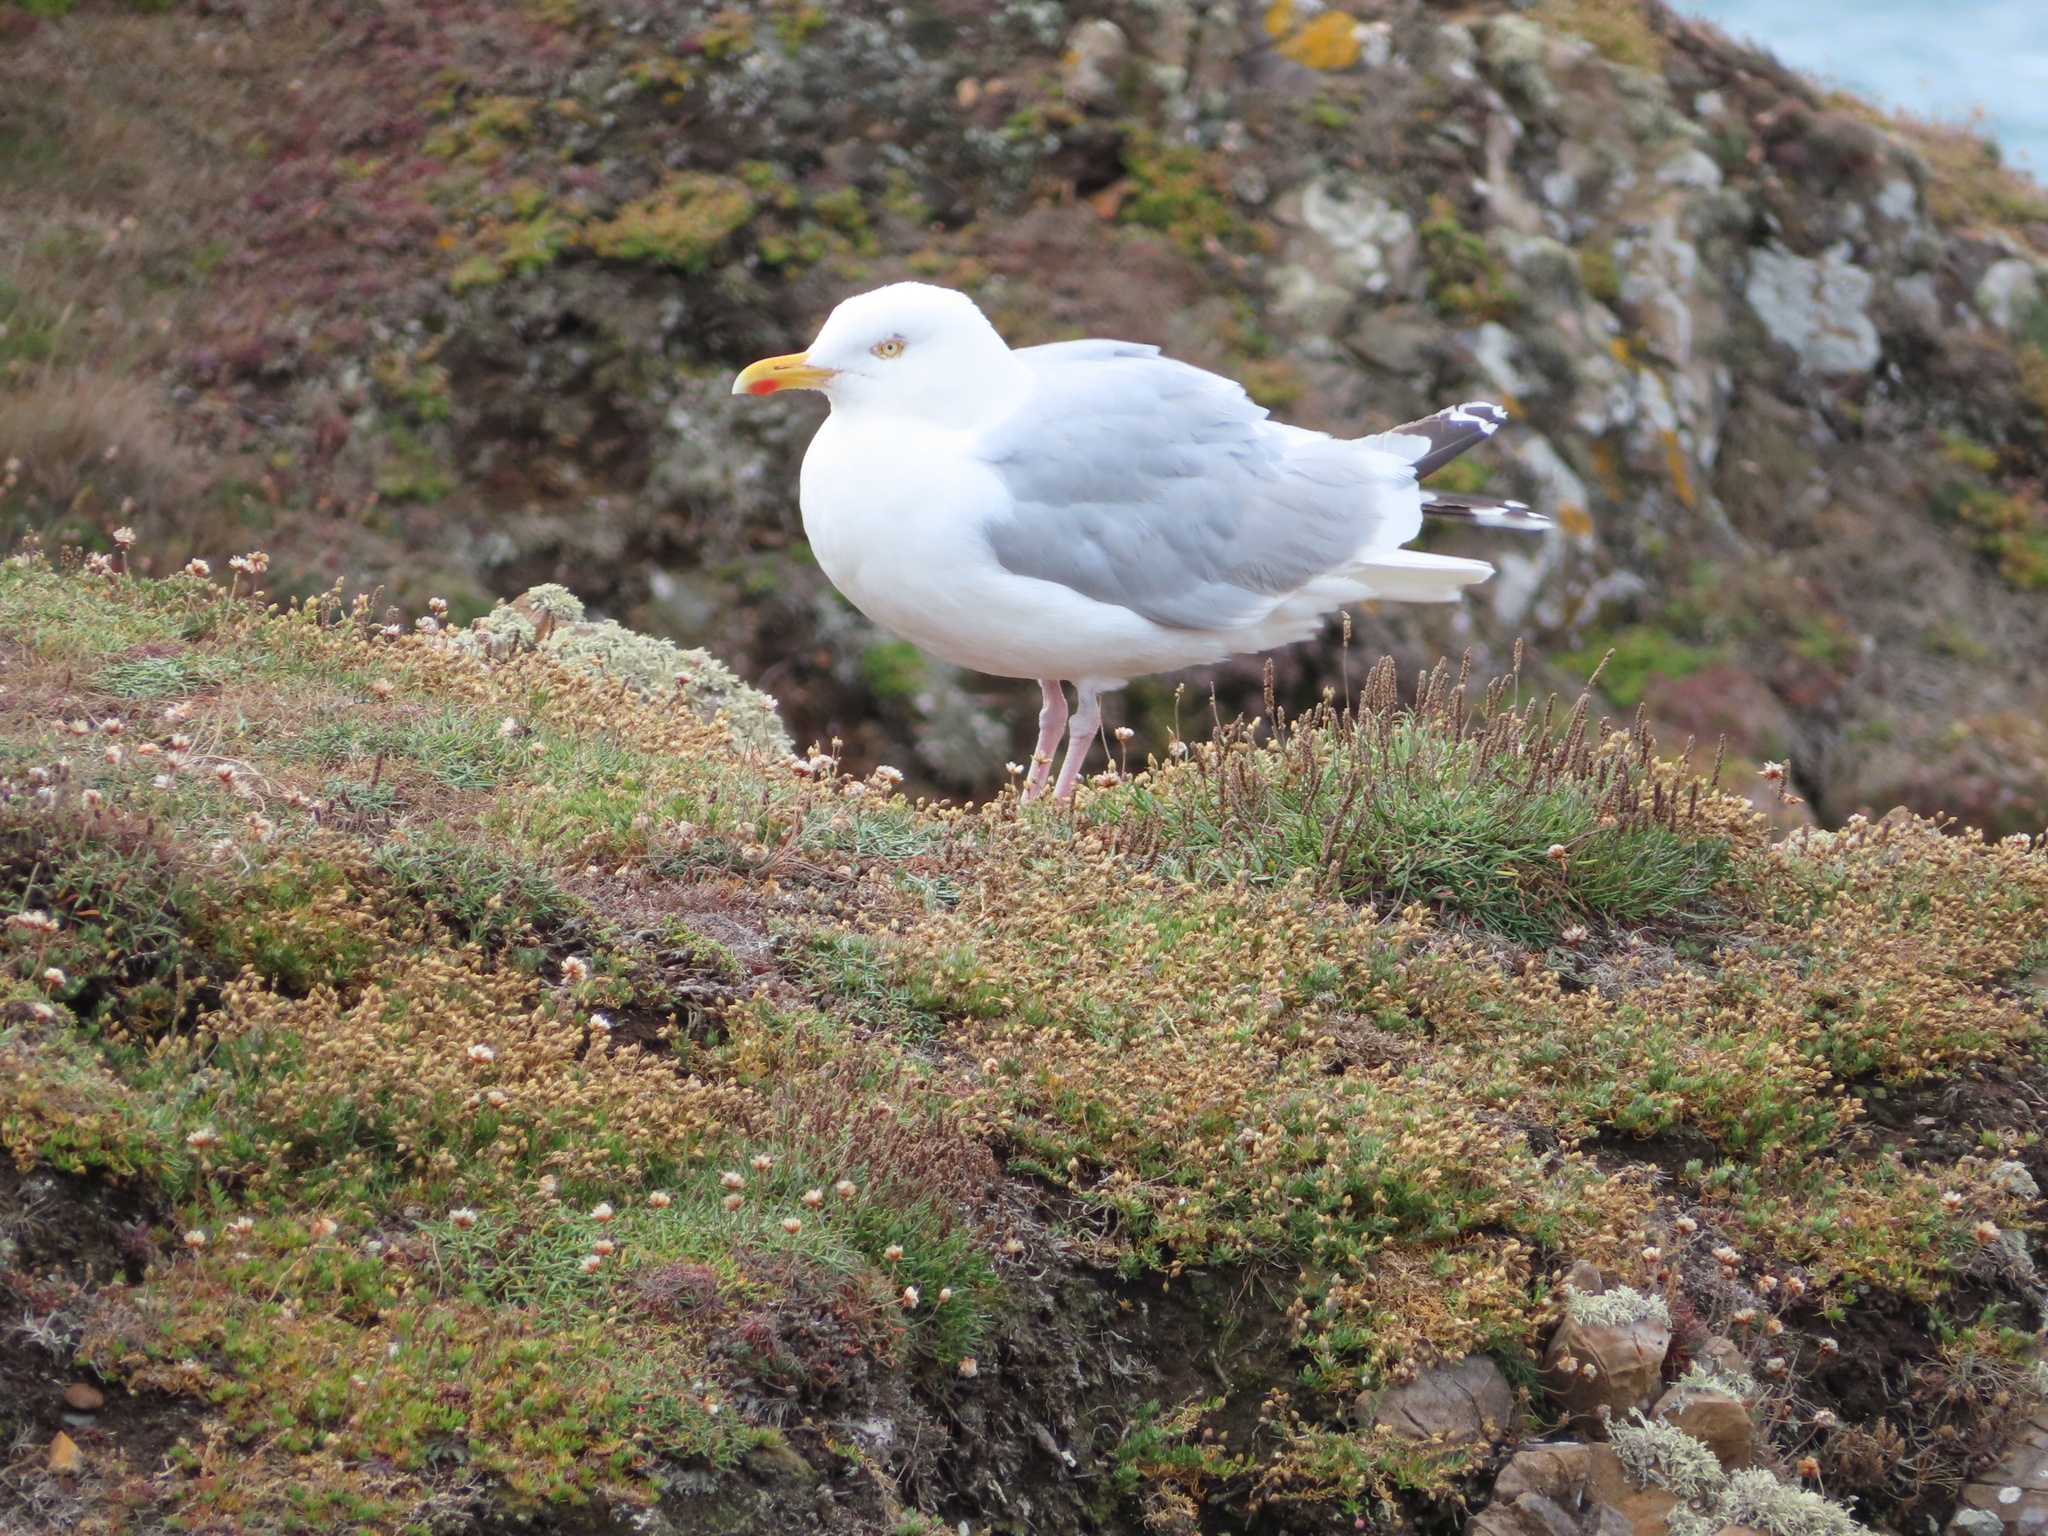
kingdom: Animalia
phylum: Chordata
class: Aves
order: Charadriiformes
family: Laridae
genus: Larus
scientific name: Larus argentatus
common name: Herring gull
